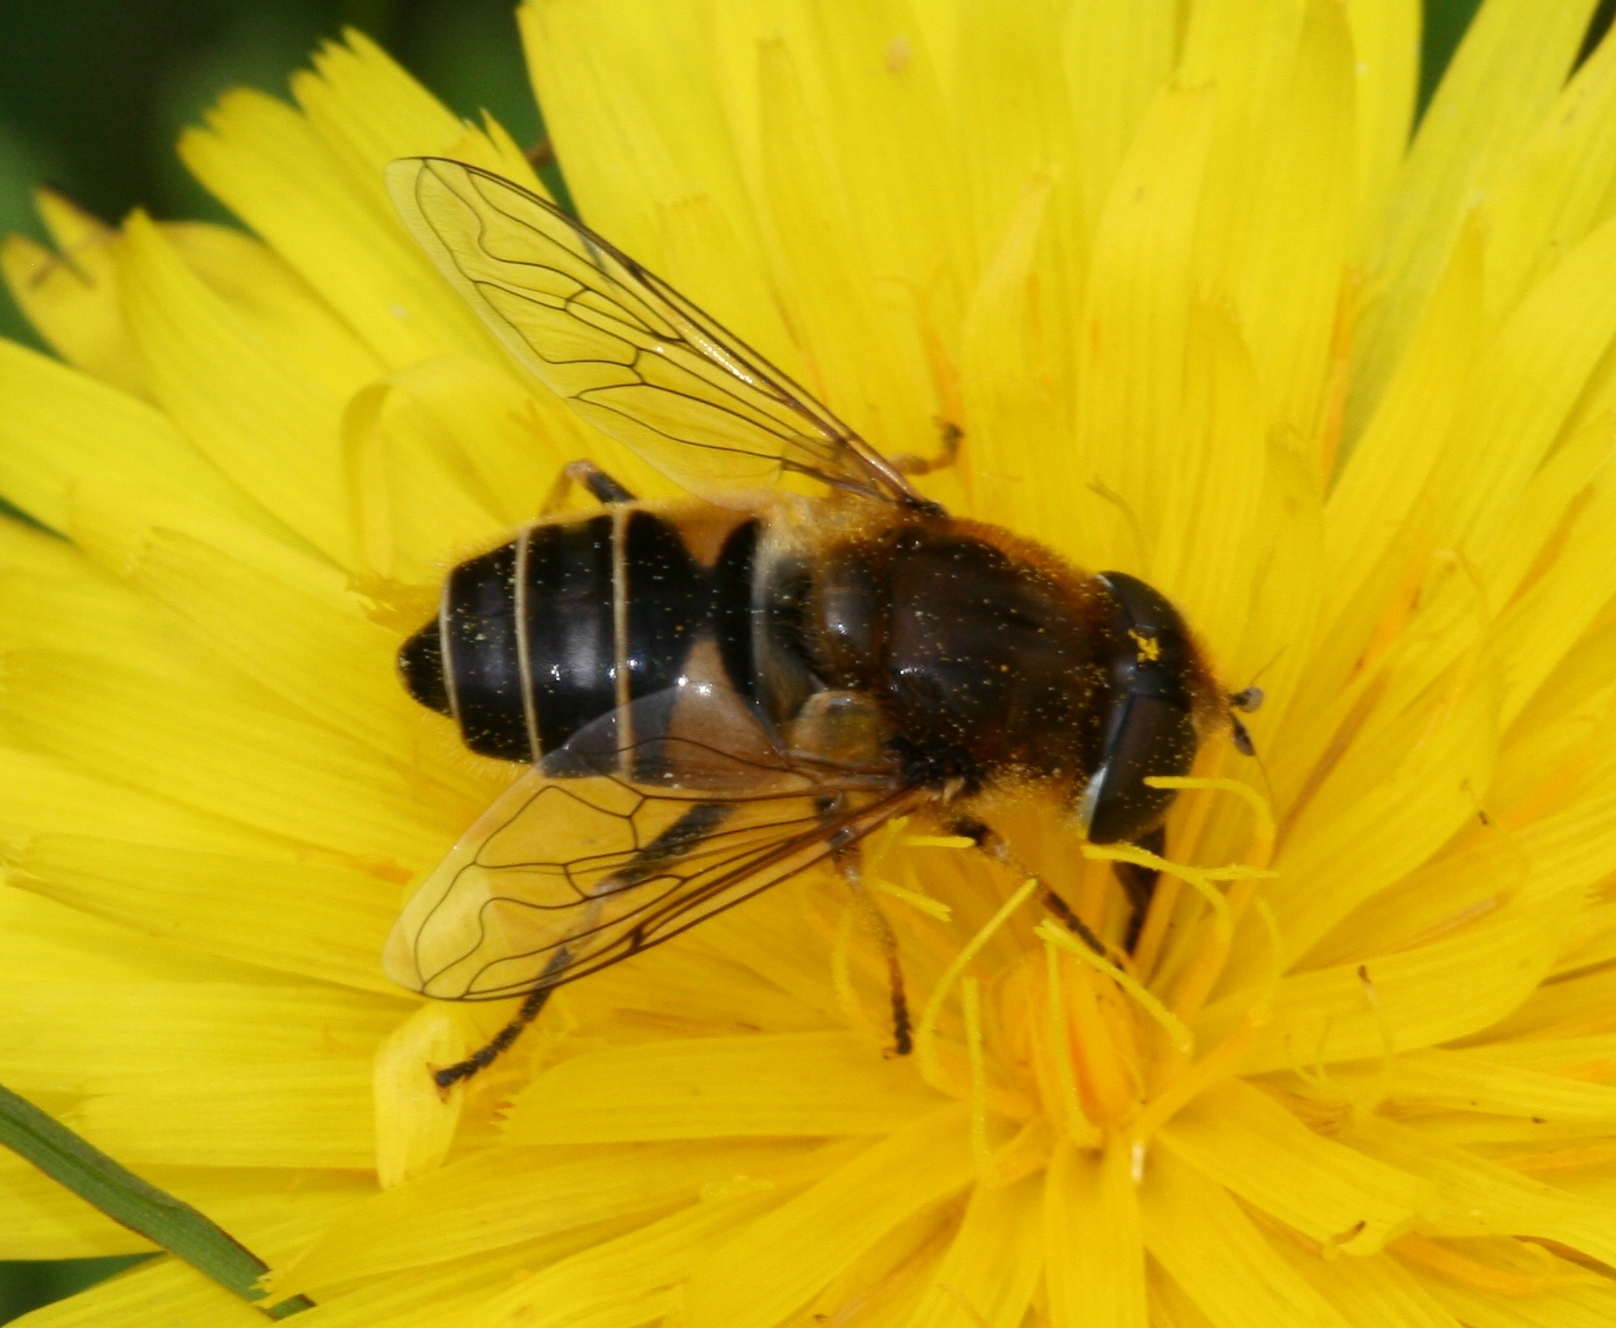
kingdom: Animalia
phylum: Arthropoda
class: Insecta
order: Diptera
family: Syrphidae
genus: Eristalis
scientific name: Eristalis nemorum
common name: Orange-spined drone fly
